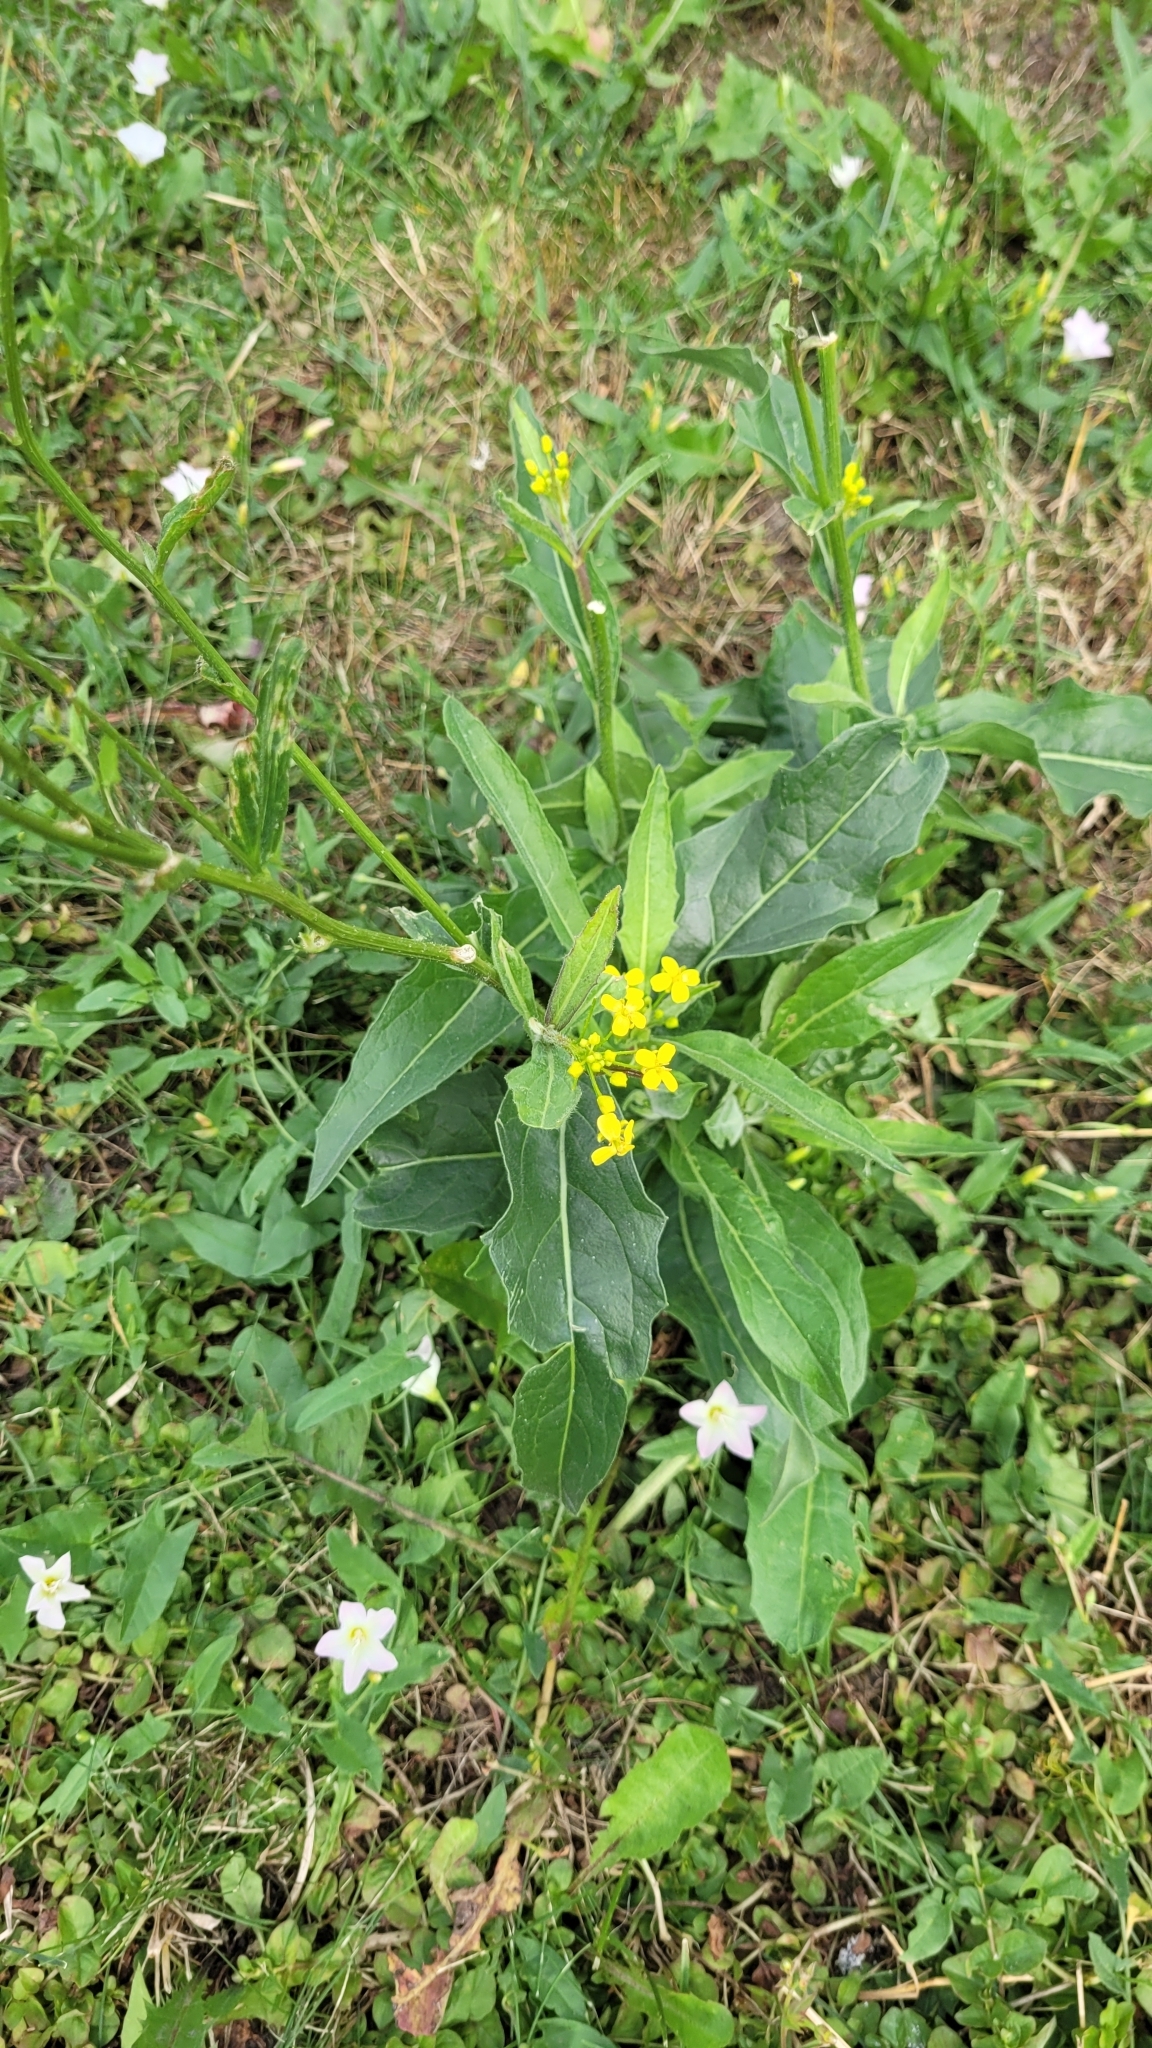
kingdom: Plantae
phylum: Tracheophyta
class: Magnoliopsida
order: Brassicales
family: Brassicaceae
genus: Bunias
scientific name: Bunias orientalis
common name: Warty-cabbage
